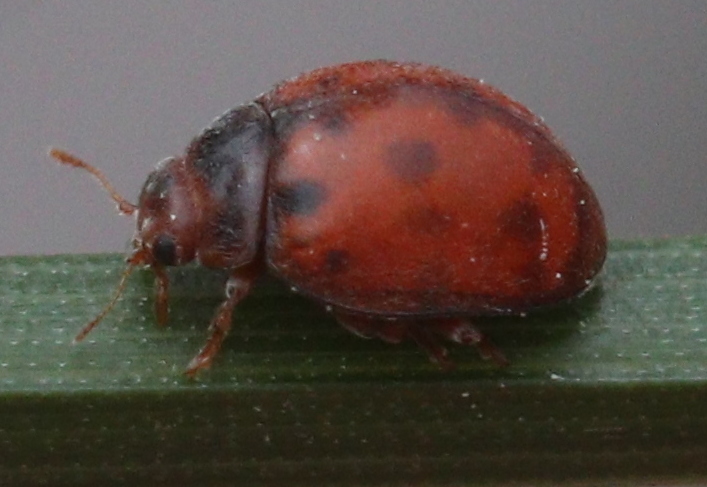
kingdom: Animalia
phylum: Arthropoda
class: Insecta
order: Coleoptera
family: Coccinellidae
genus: Subcoccinella
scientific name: Subcoccinella vigintiquatuorpunctata
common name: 24-spot ladybird
